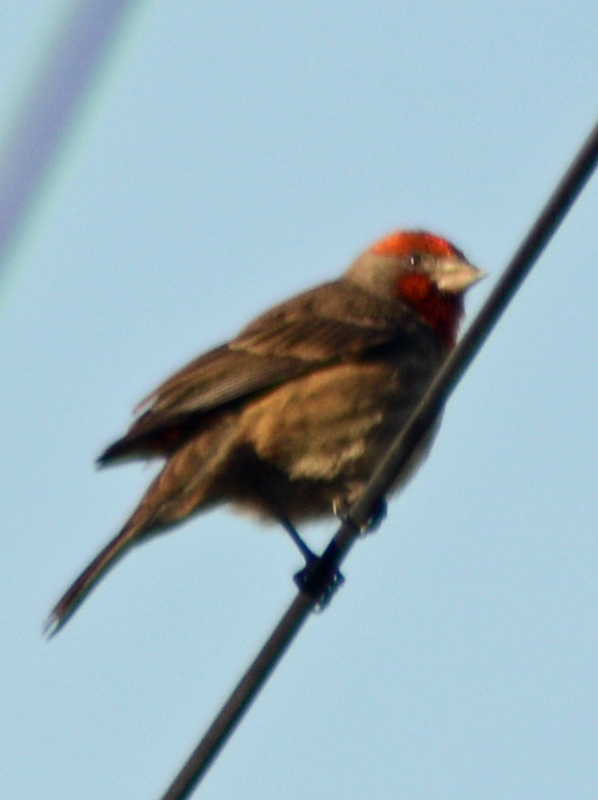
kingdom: Animalia
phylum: Chordata
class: Aves
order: Passeriformes
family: Fringillidae
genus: Haemorhous
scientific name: Haemorhous mexicanus
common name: House finch
